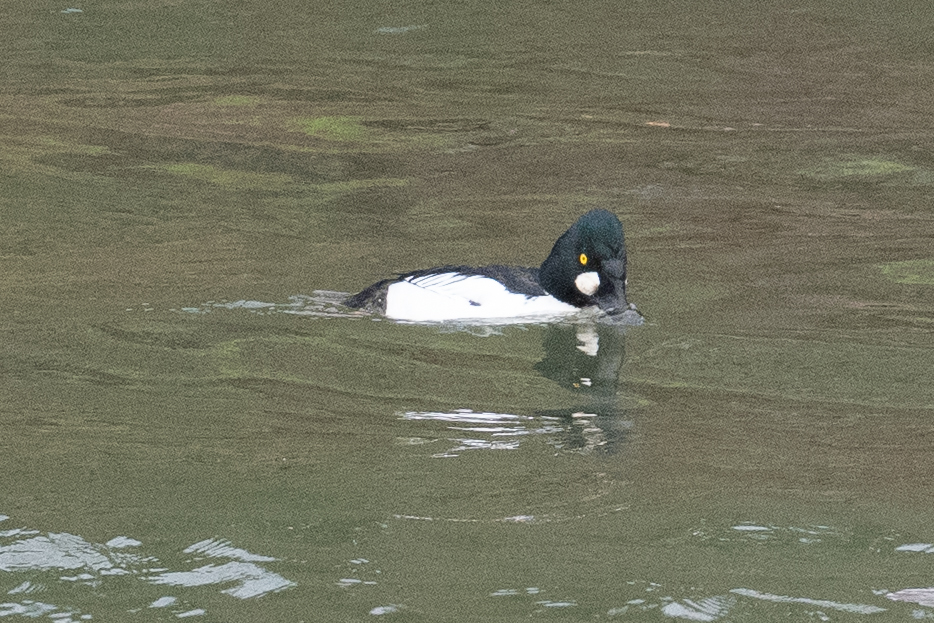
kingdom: Animalia
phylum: Chordata
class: Aves
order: Anseriformes
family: Anatidae
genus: Bucephala
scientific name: Bucephala clangula
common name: Common goldeneye
